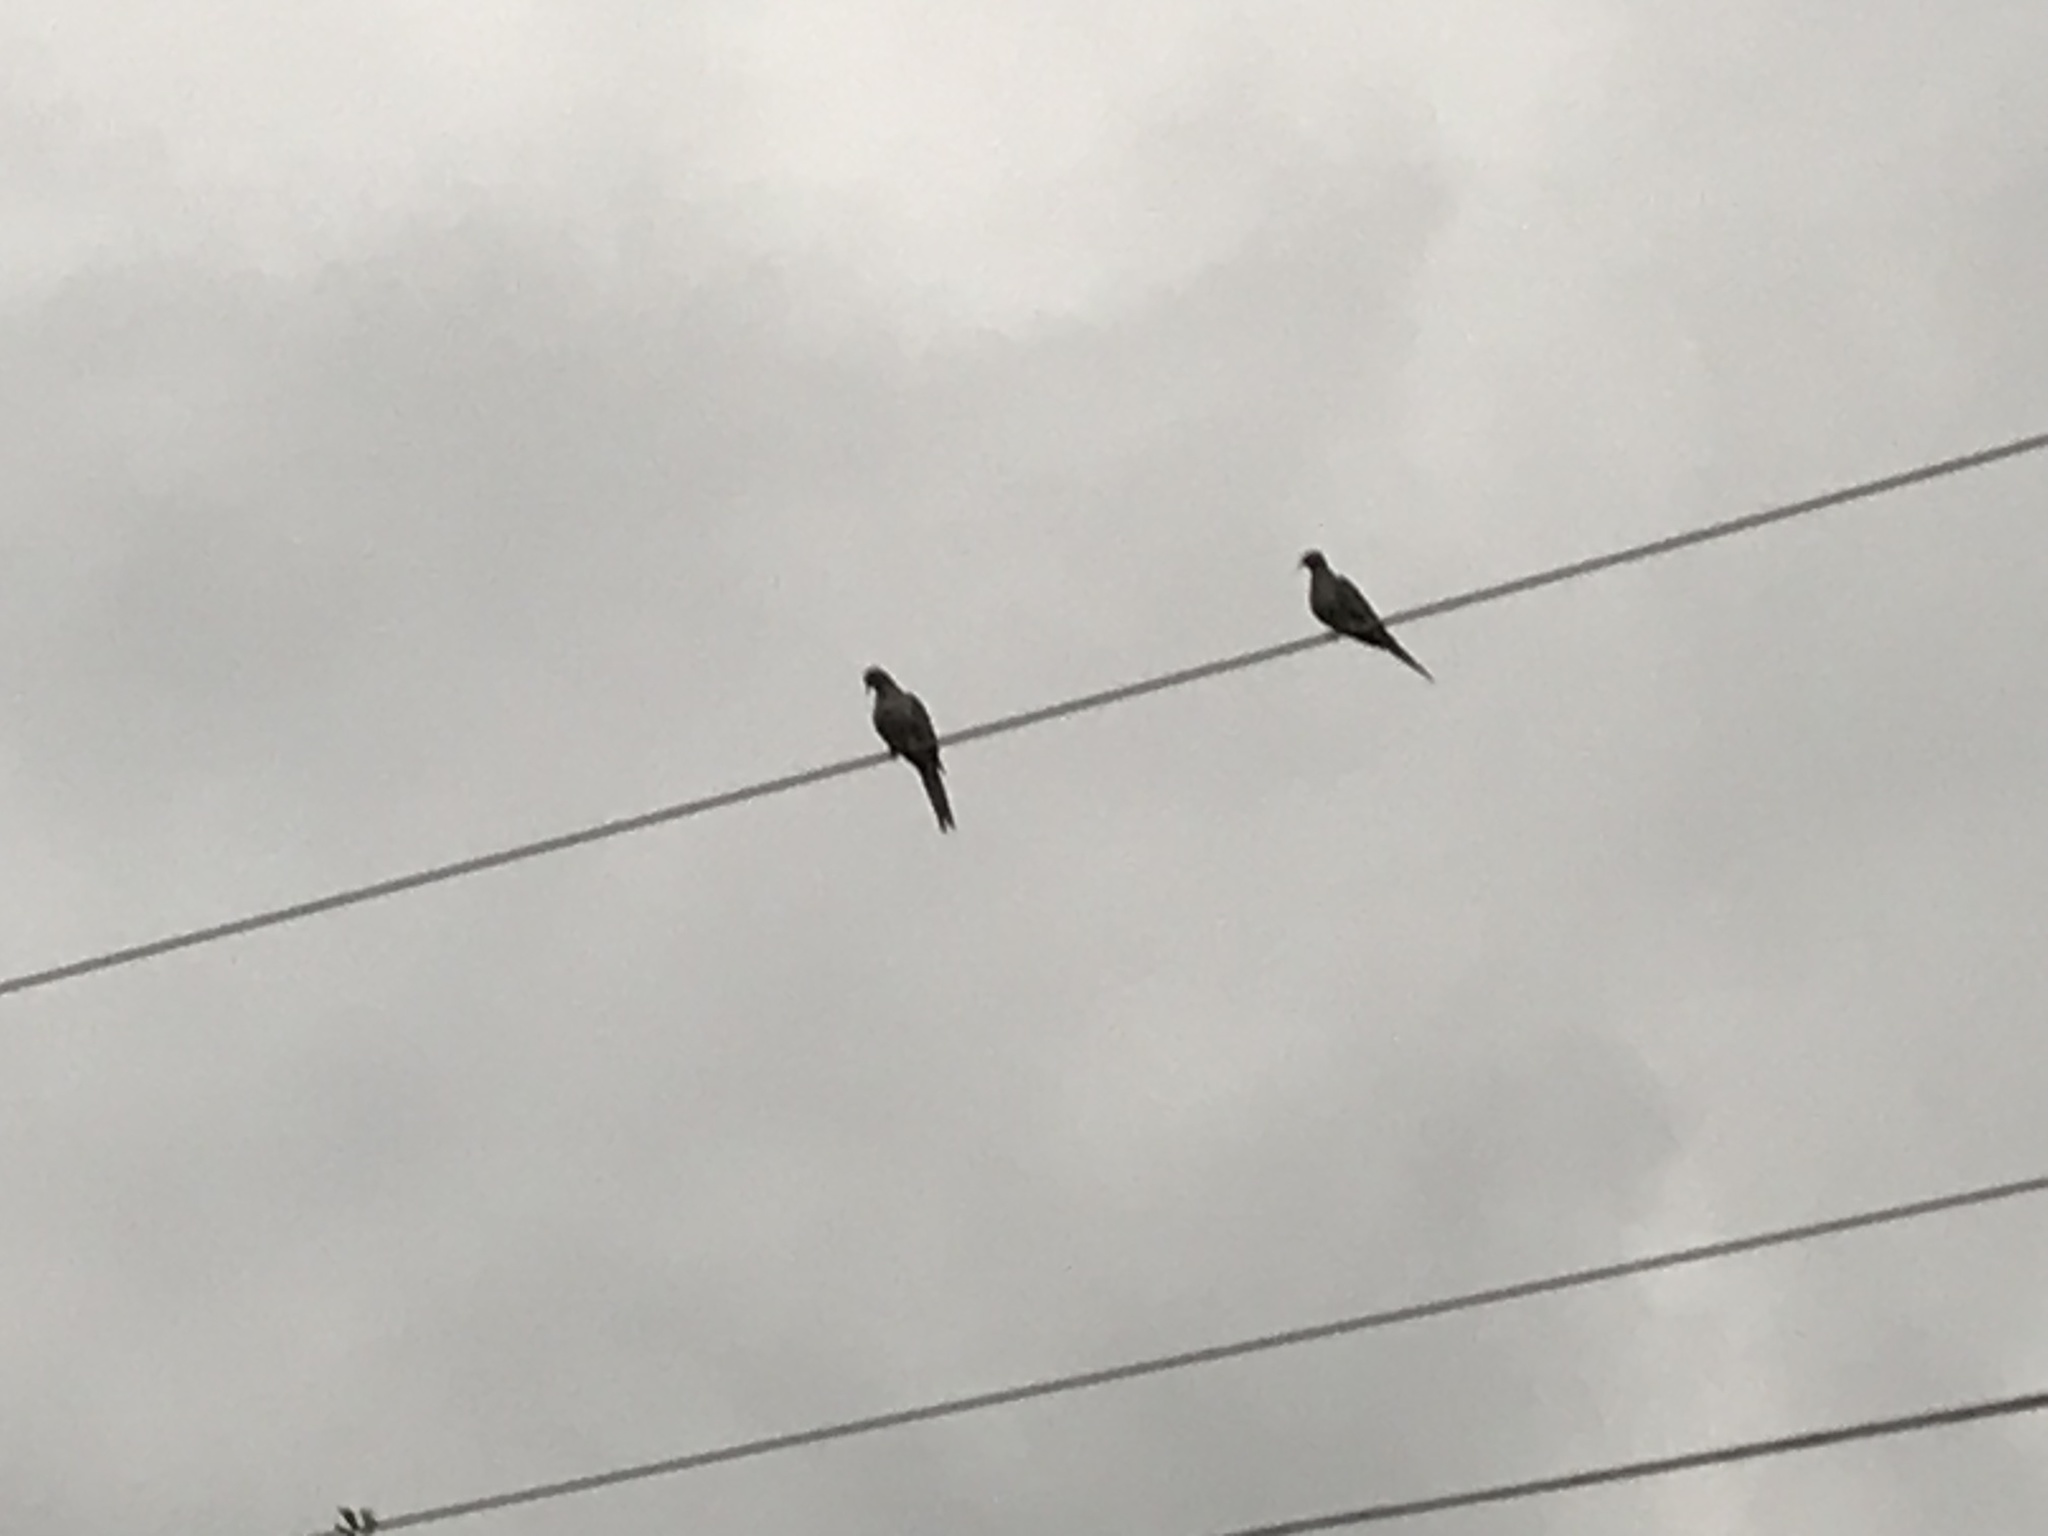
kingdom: Animalia
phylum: Chordata
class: Aves
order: Columbiformes
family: Columbidae
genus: Zenaida
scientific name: Zenaida macroura
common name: Mourning dove
